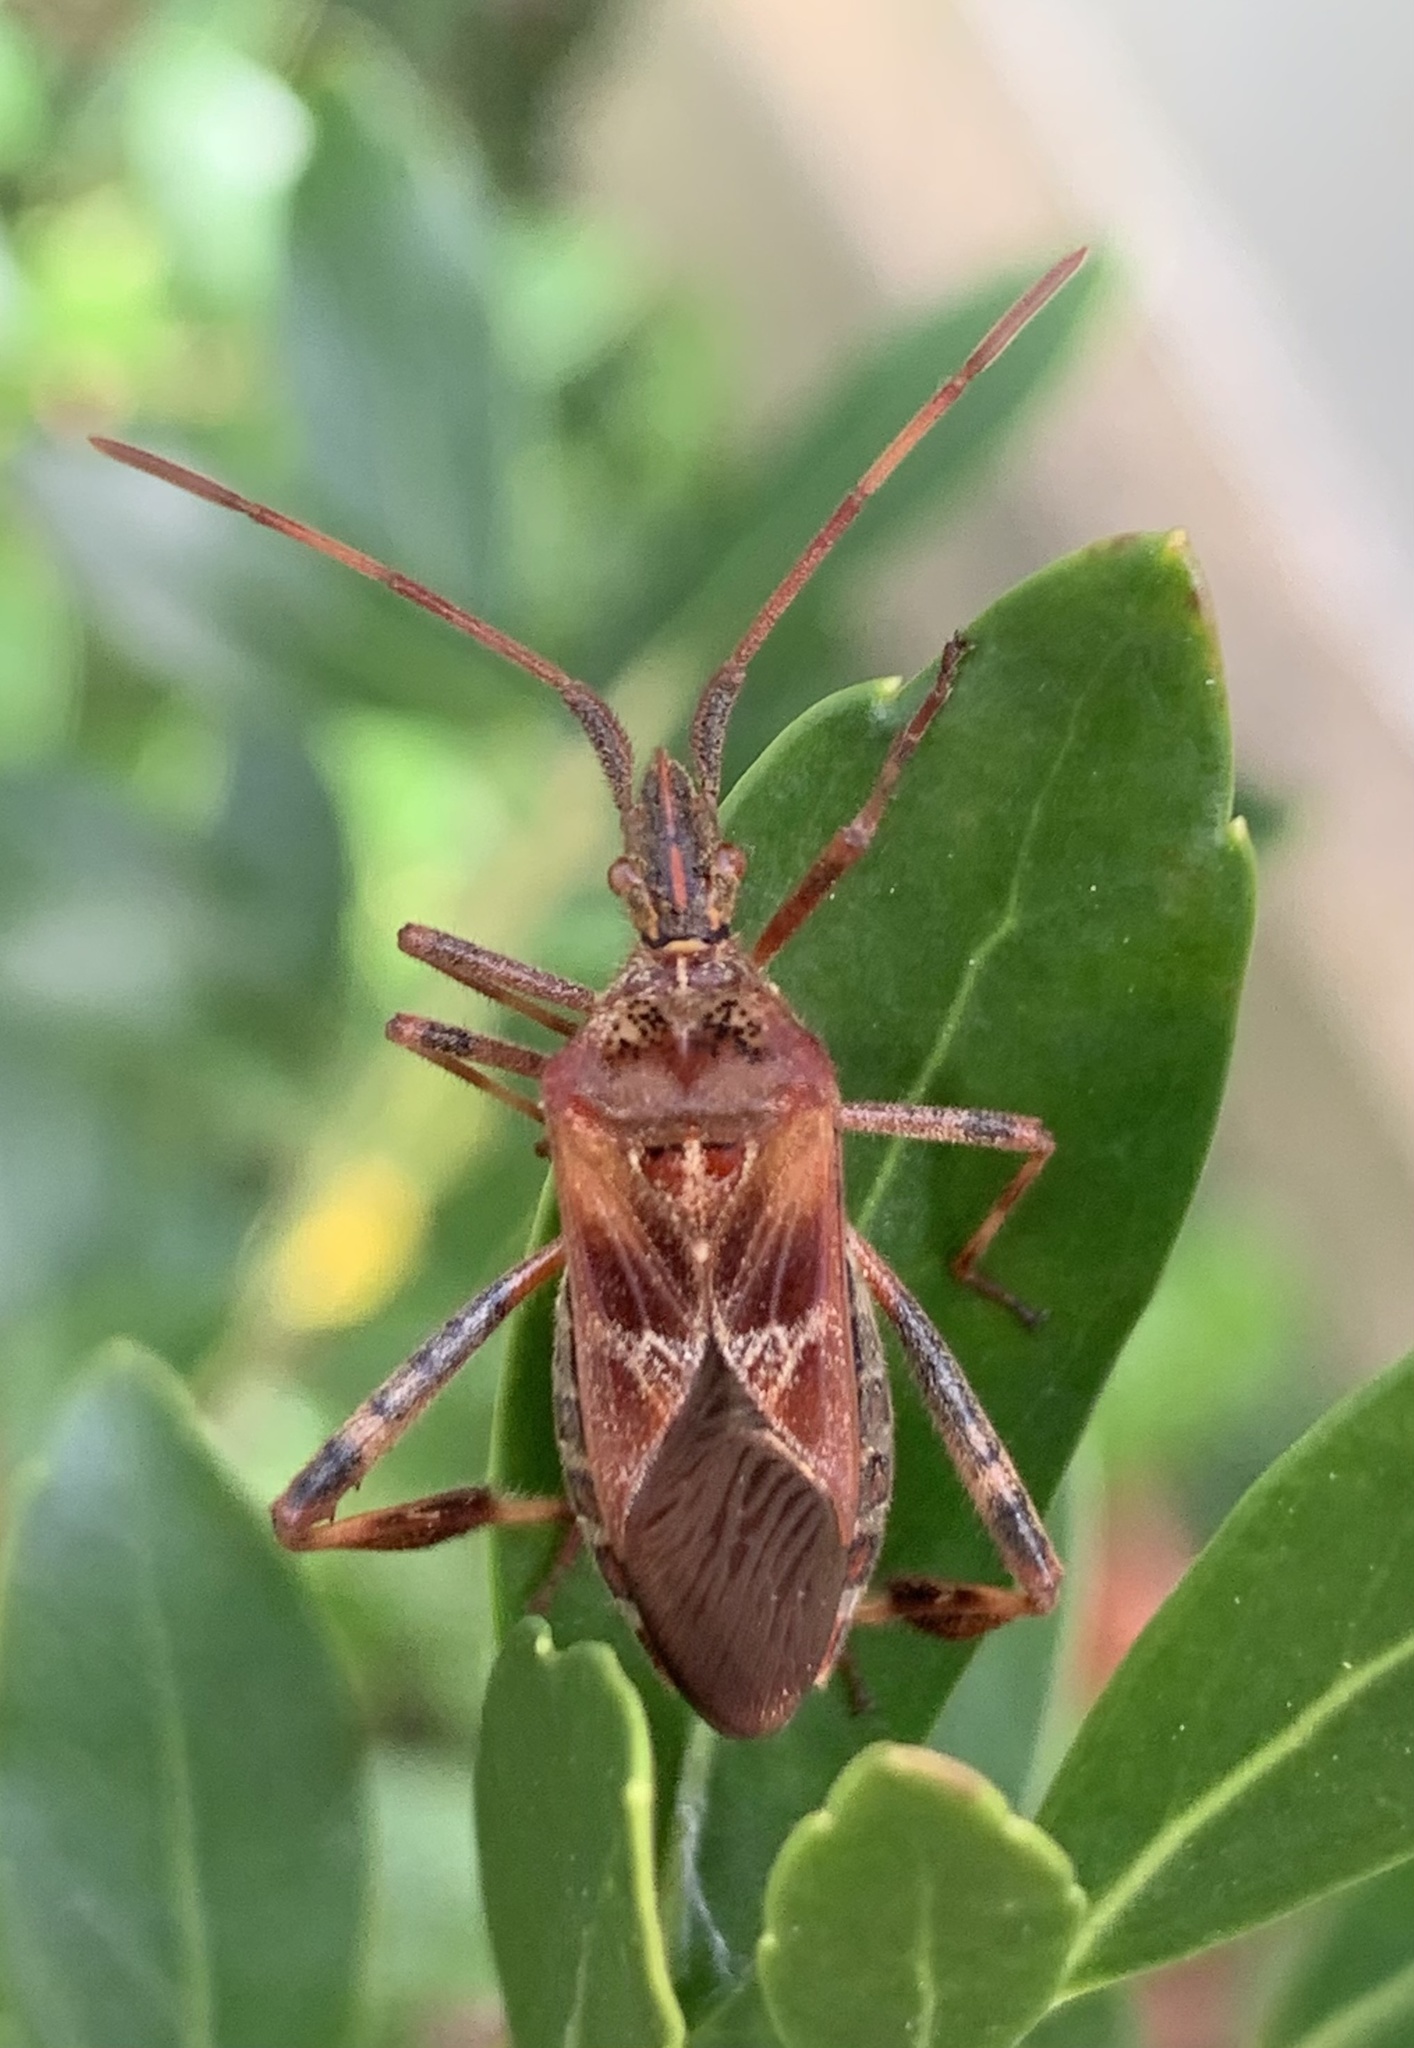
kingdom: Animalia
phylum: Arthropoda
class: Insecta
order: Hemiptera
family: Coreidae
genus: Leptoglossus
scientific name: Leptoglossus occidentalis
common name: Western conifer-seed bug
